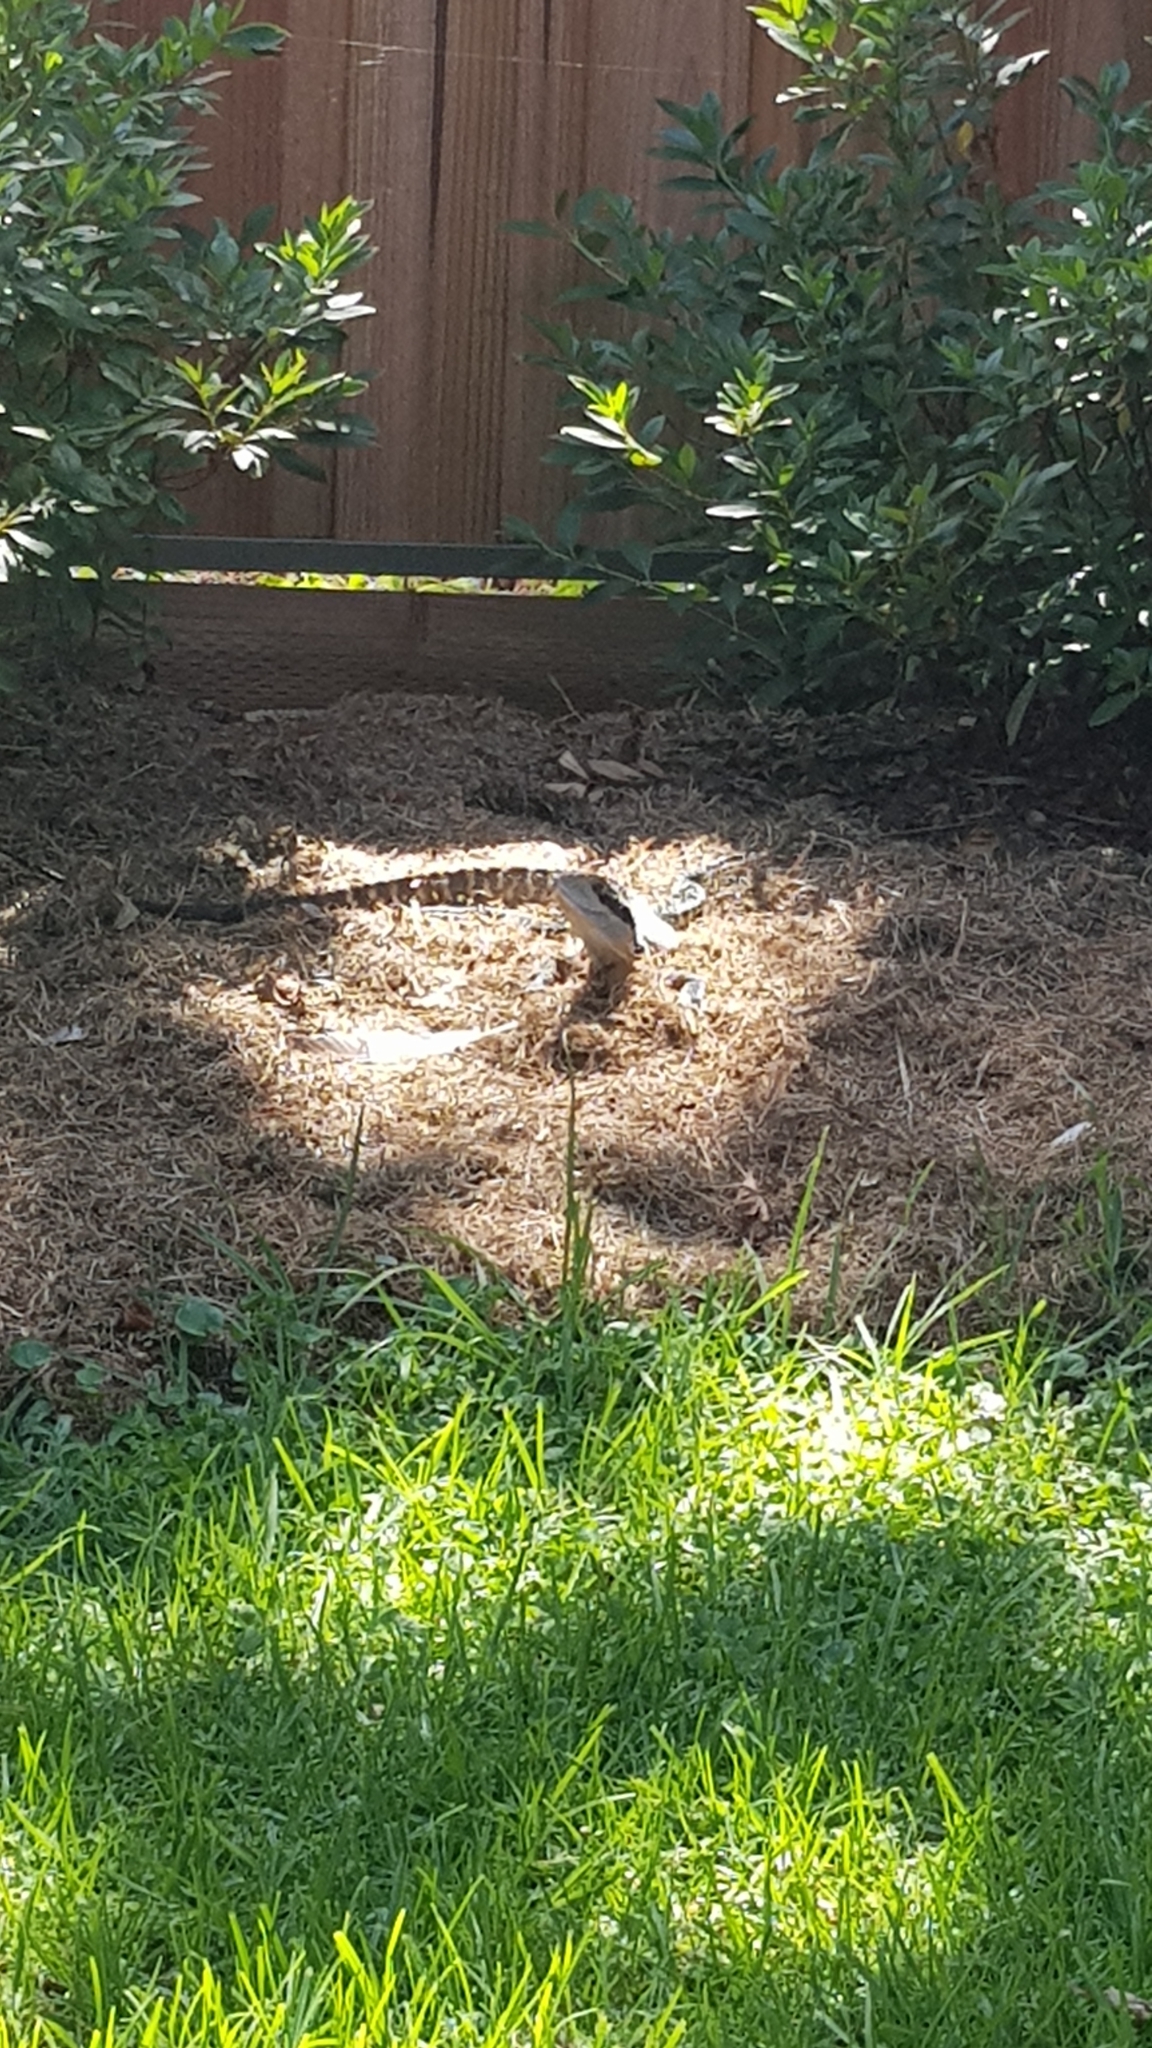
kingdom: Animalia
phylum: Chordata
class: Squamata
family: Agamidae
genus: Intellagama
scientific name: Intellagama lesueurii
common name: Eastern water dragon
